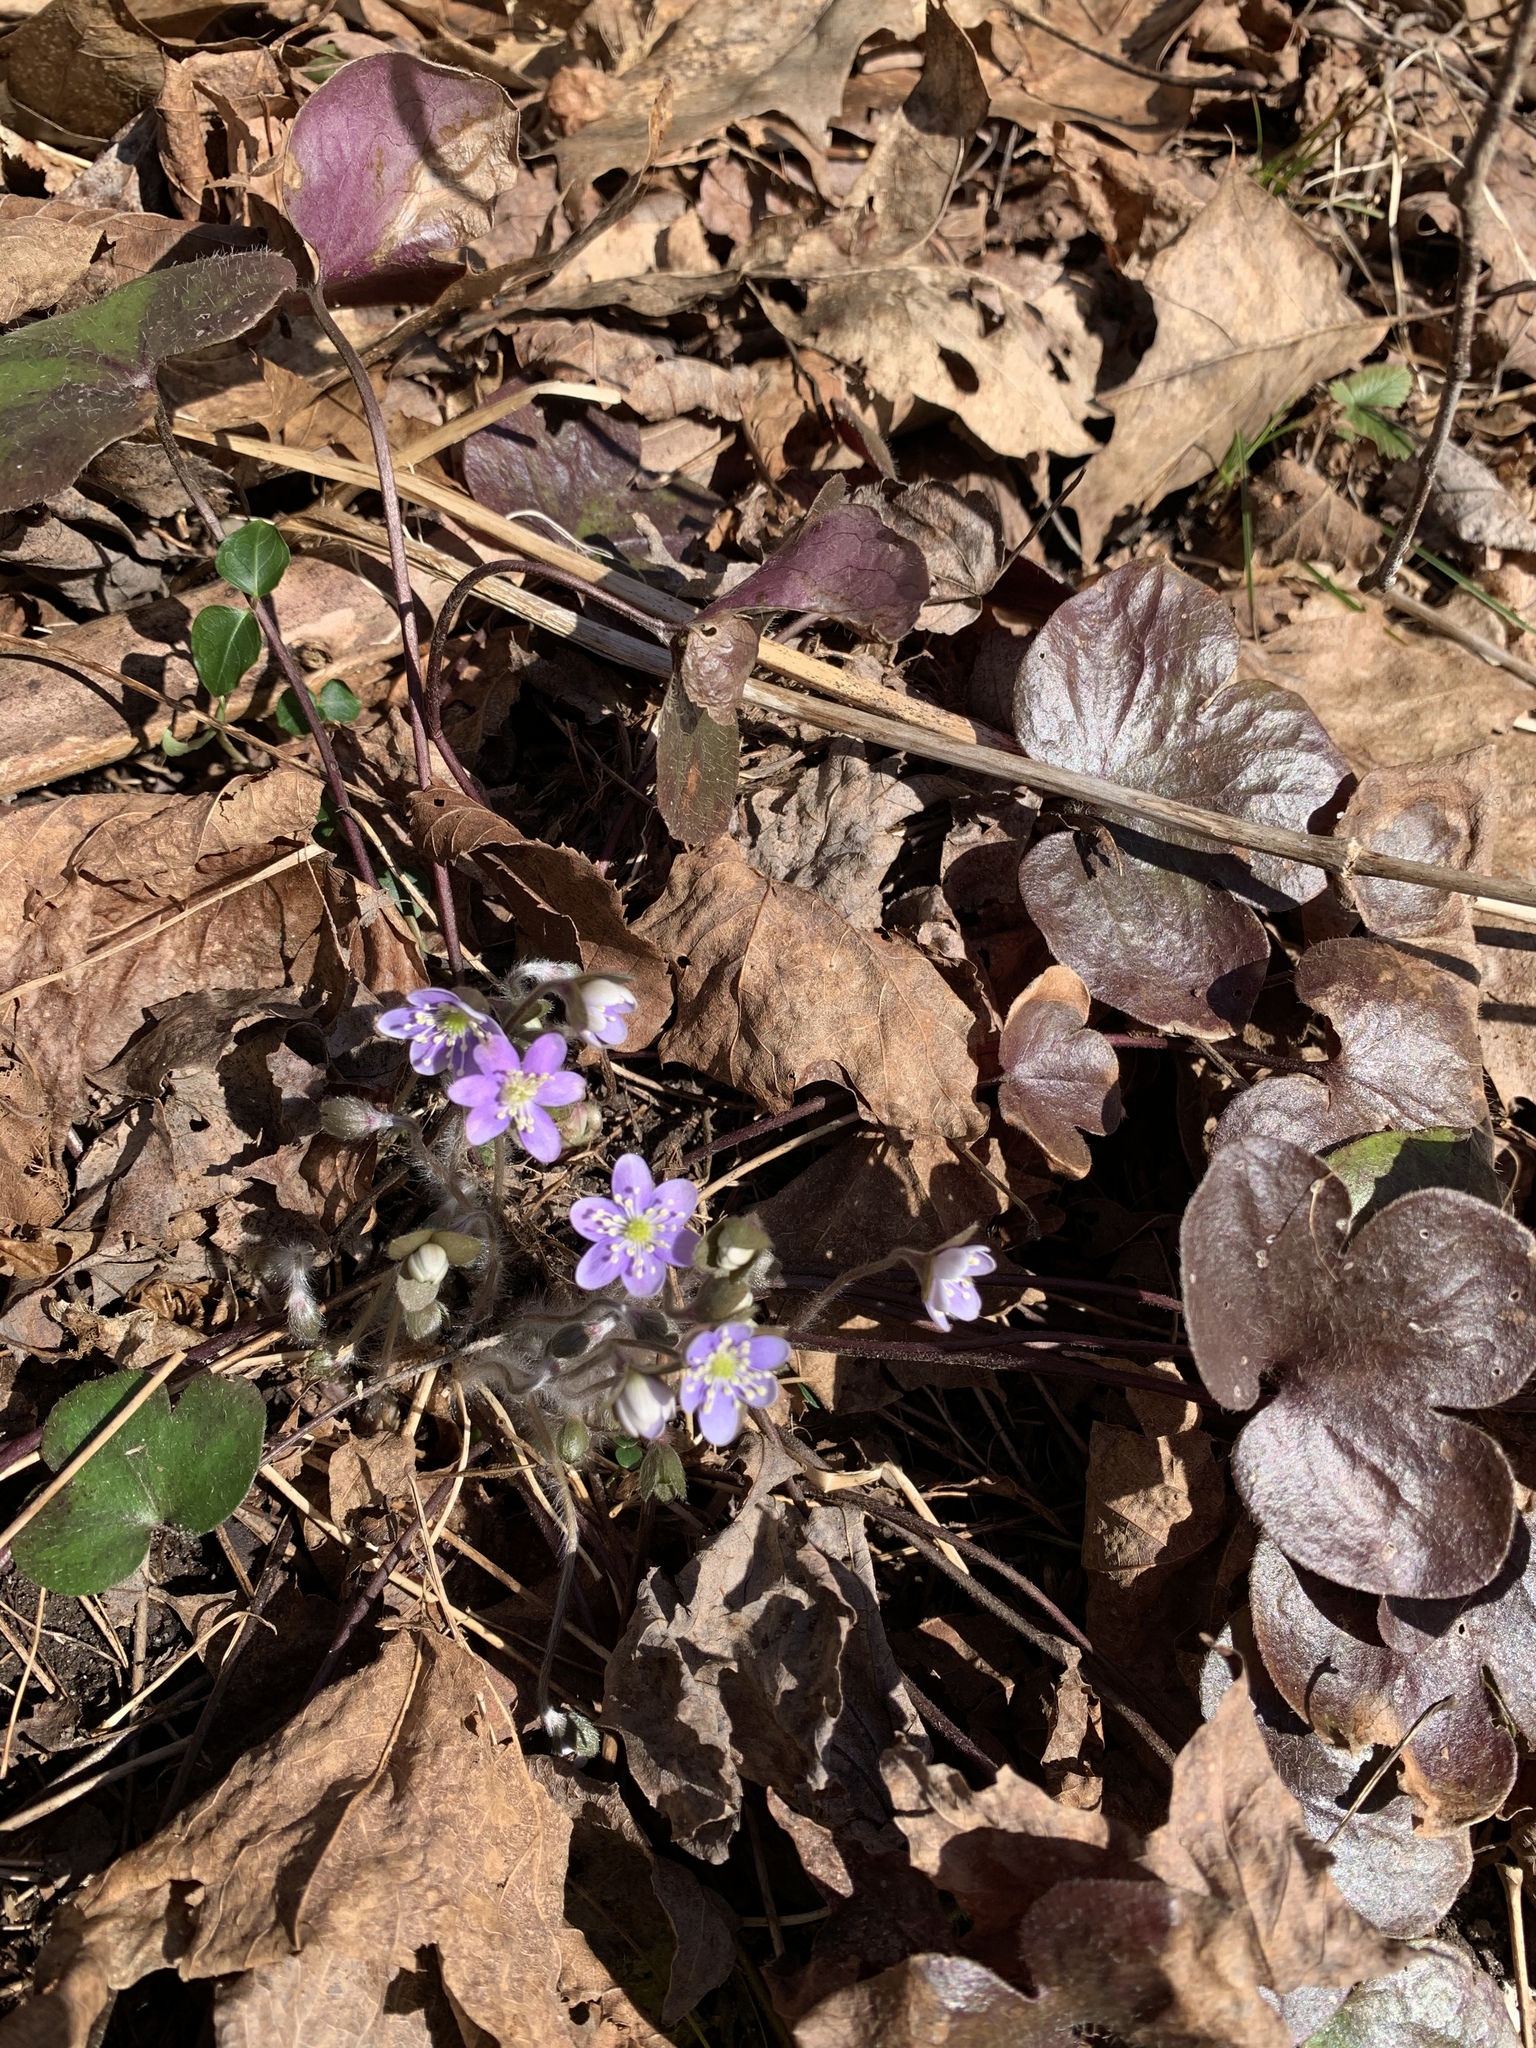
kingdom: Plantae
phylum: Tracheophyta
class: Magnoliopsida
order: Ranunculales
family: Ranunculaceae
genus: Hepatica
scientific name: Hepatica americana
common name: American hepatica
